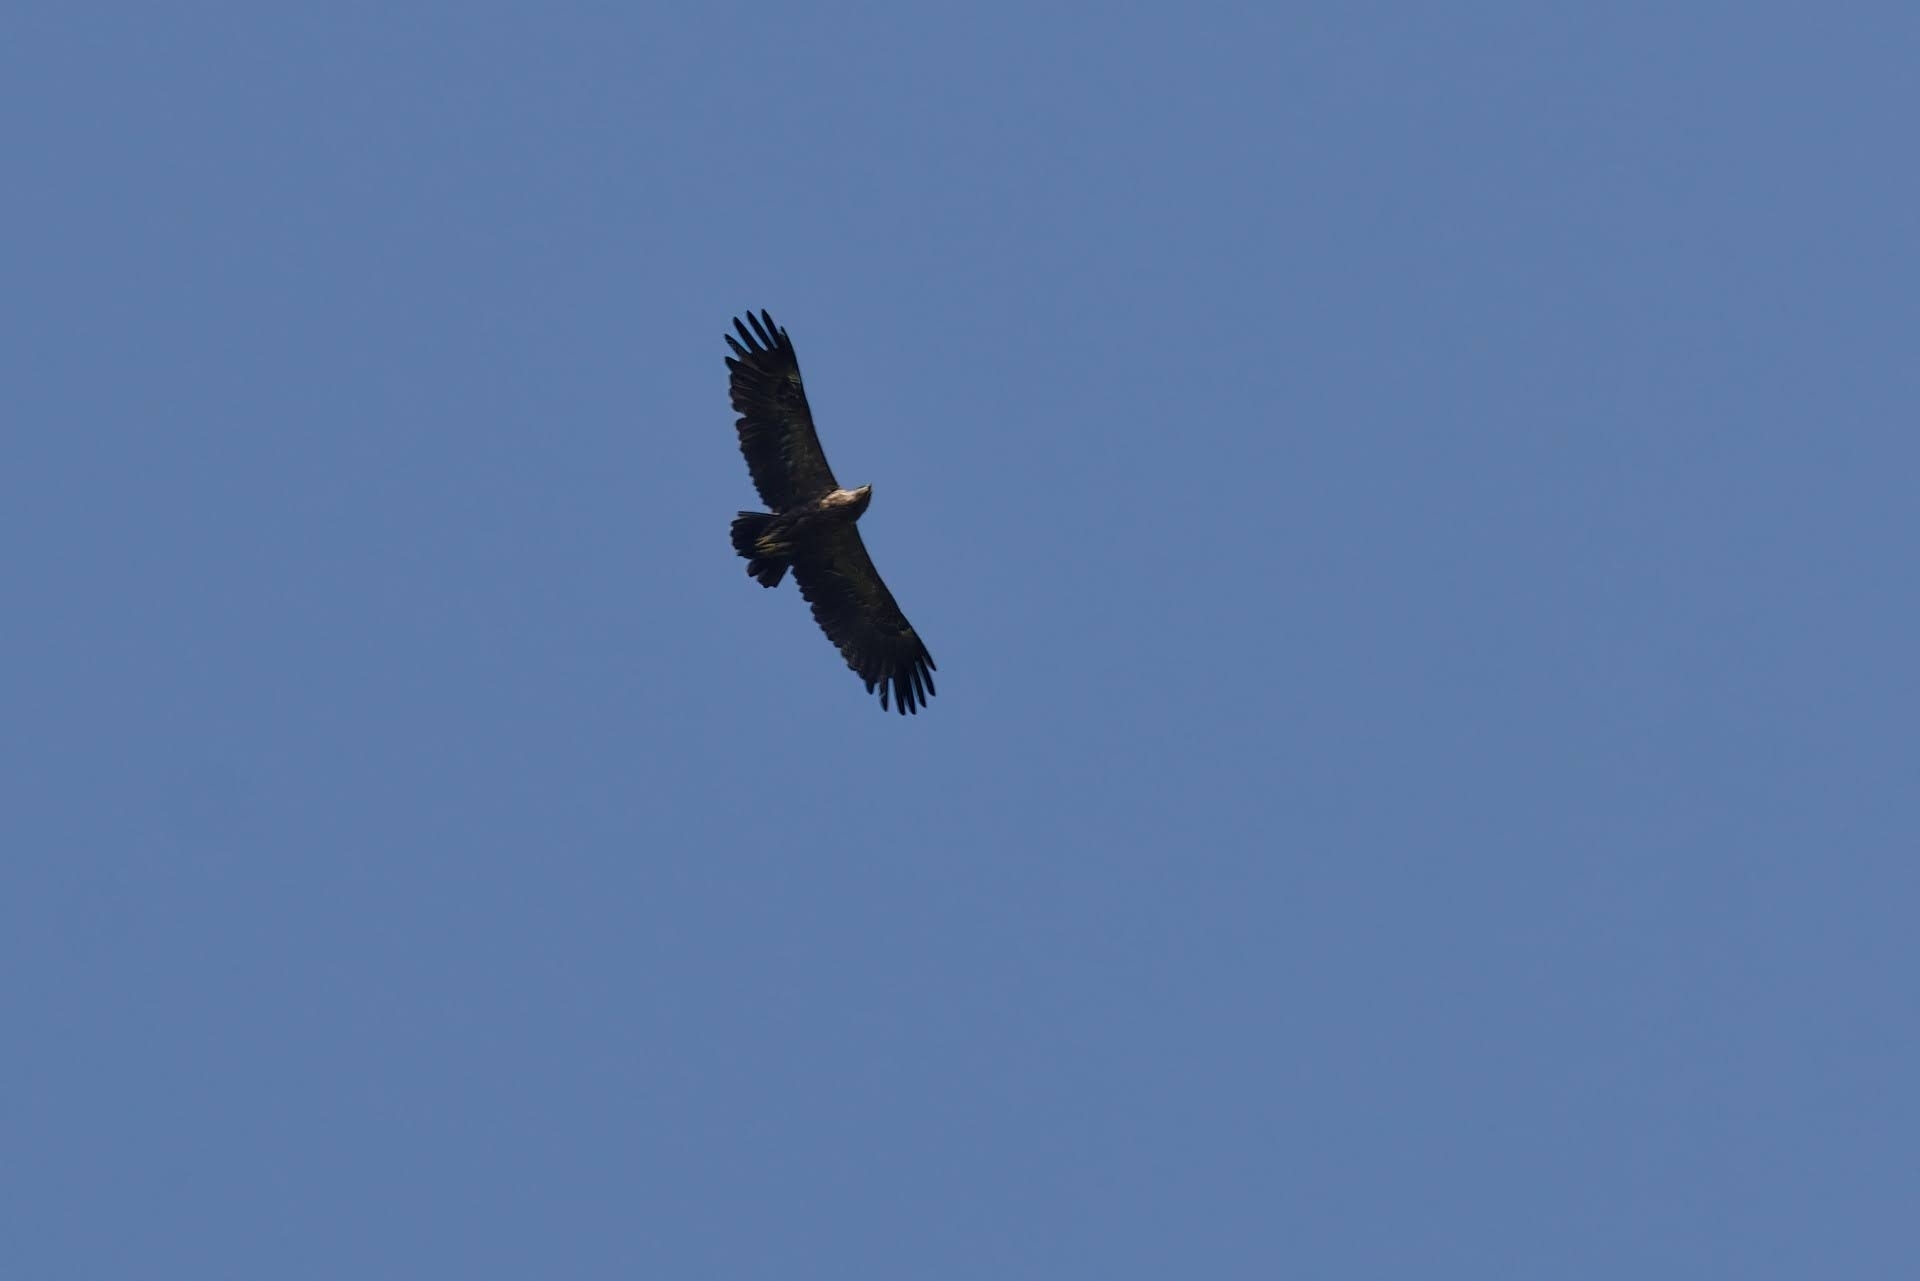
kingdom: Animalia
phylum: Chordata
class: Aves
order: Accipitriformes
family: Accipitridae
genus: Aquila
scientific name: Aquila pomarina
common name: Lesser spotted eagle
